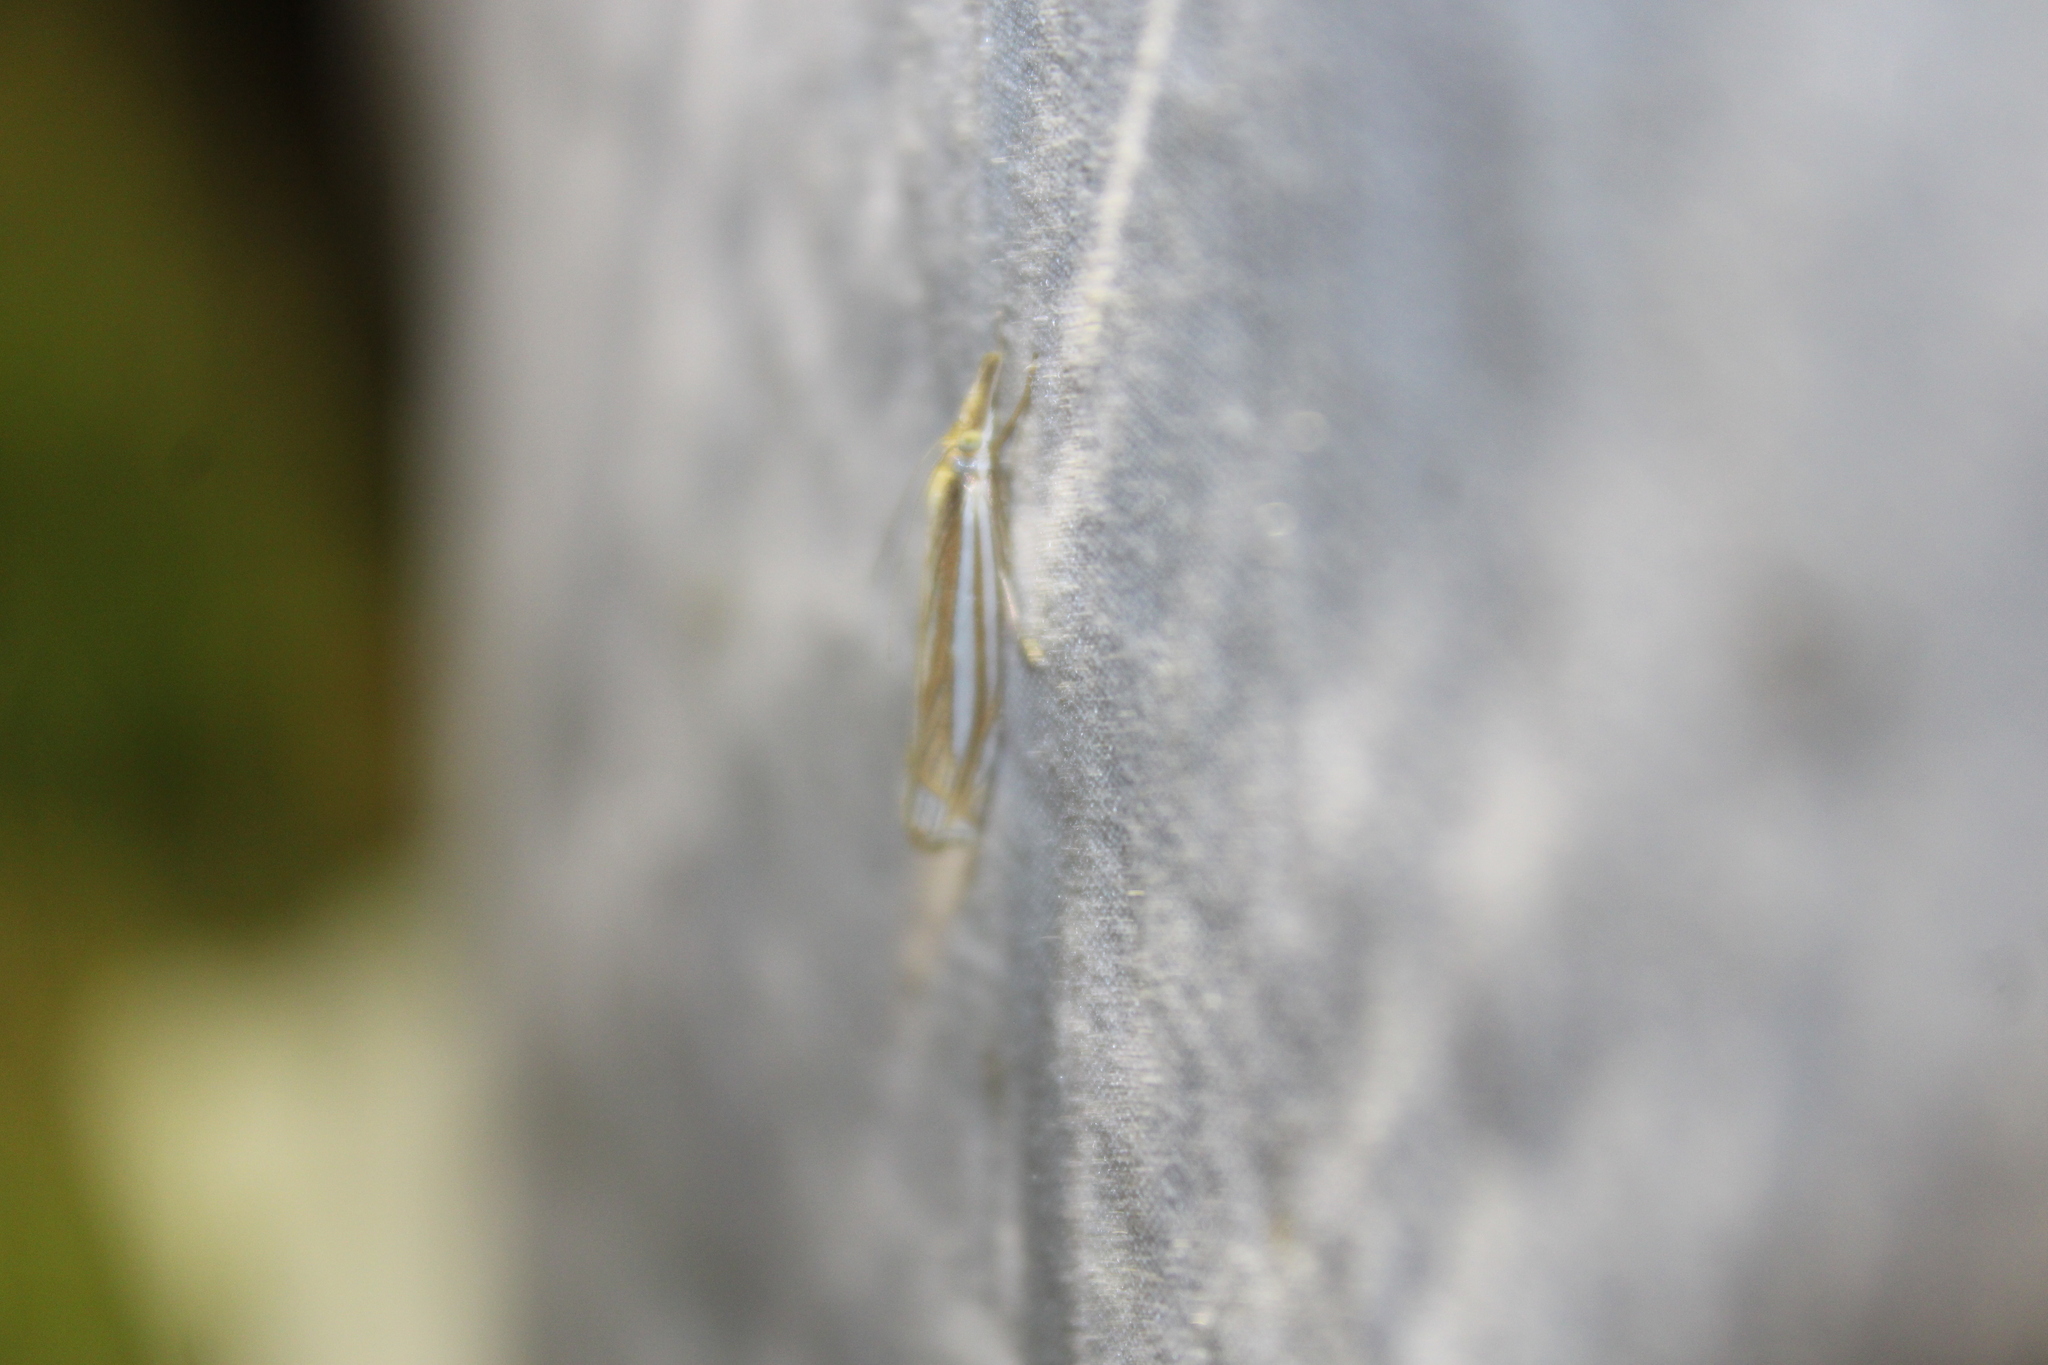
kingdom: Animalia
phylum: Arthropoda
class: Insecta
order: Lepidoptera
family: Crambidae
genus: Crambus
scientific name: Crambus laqueatellus
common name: Eastern grass-veneer
